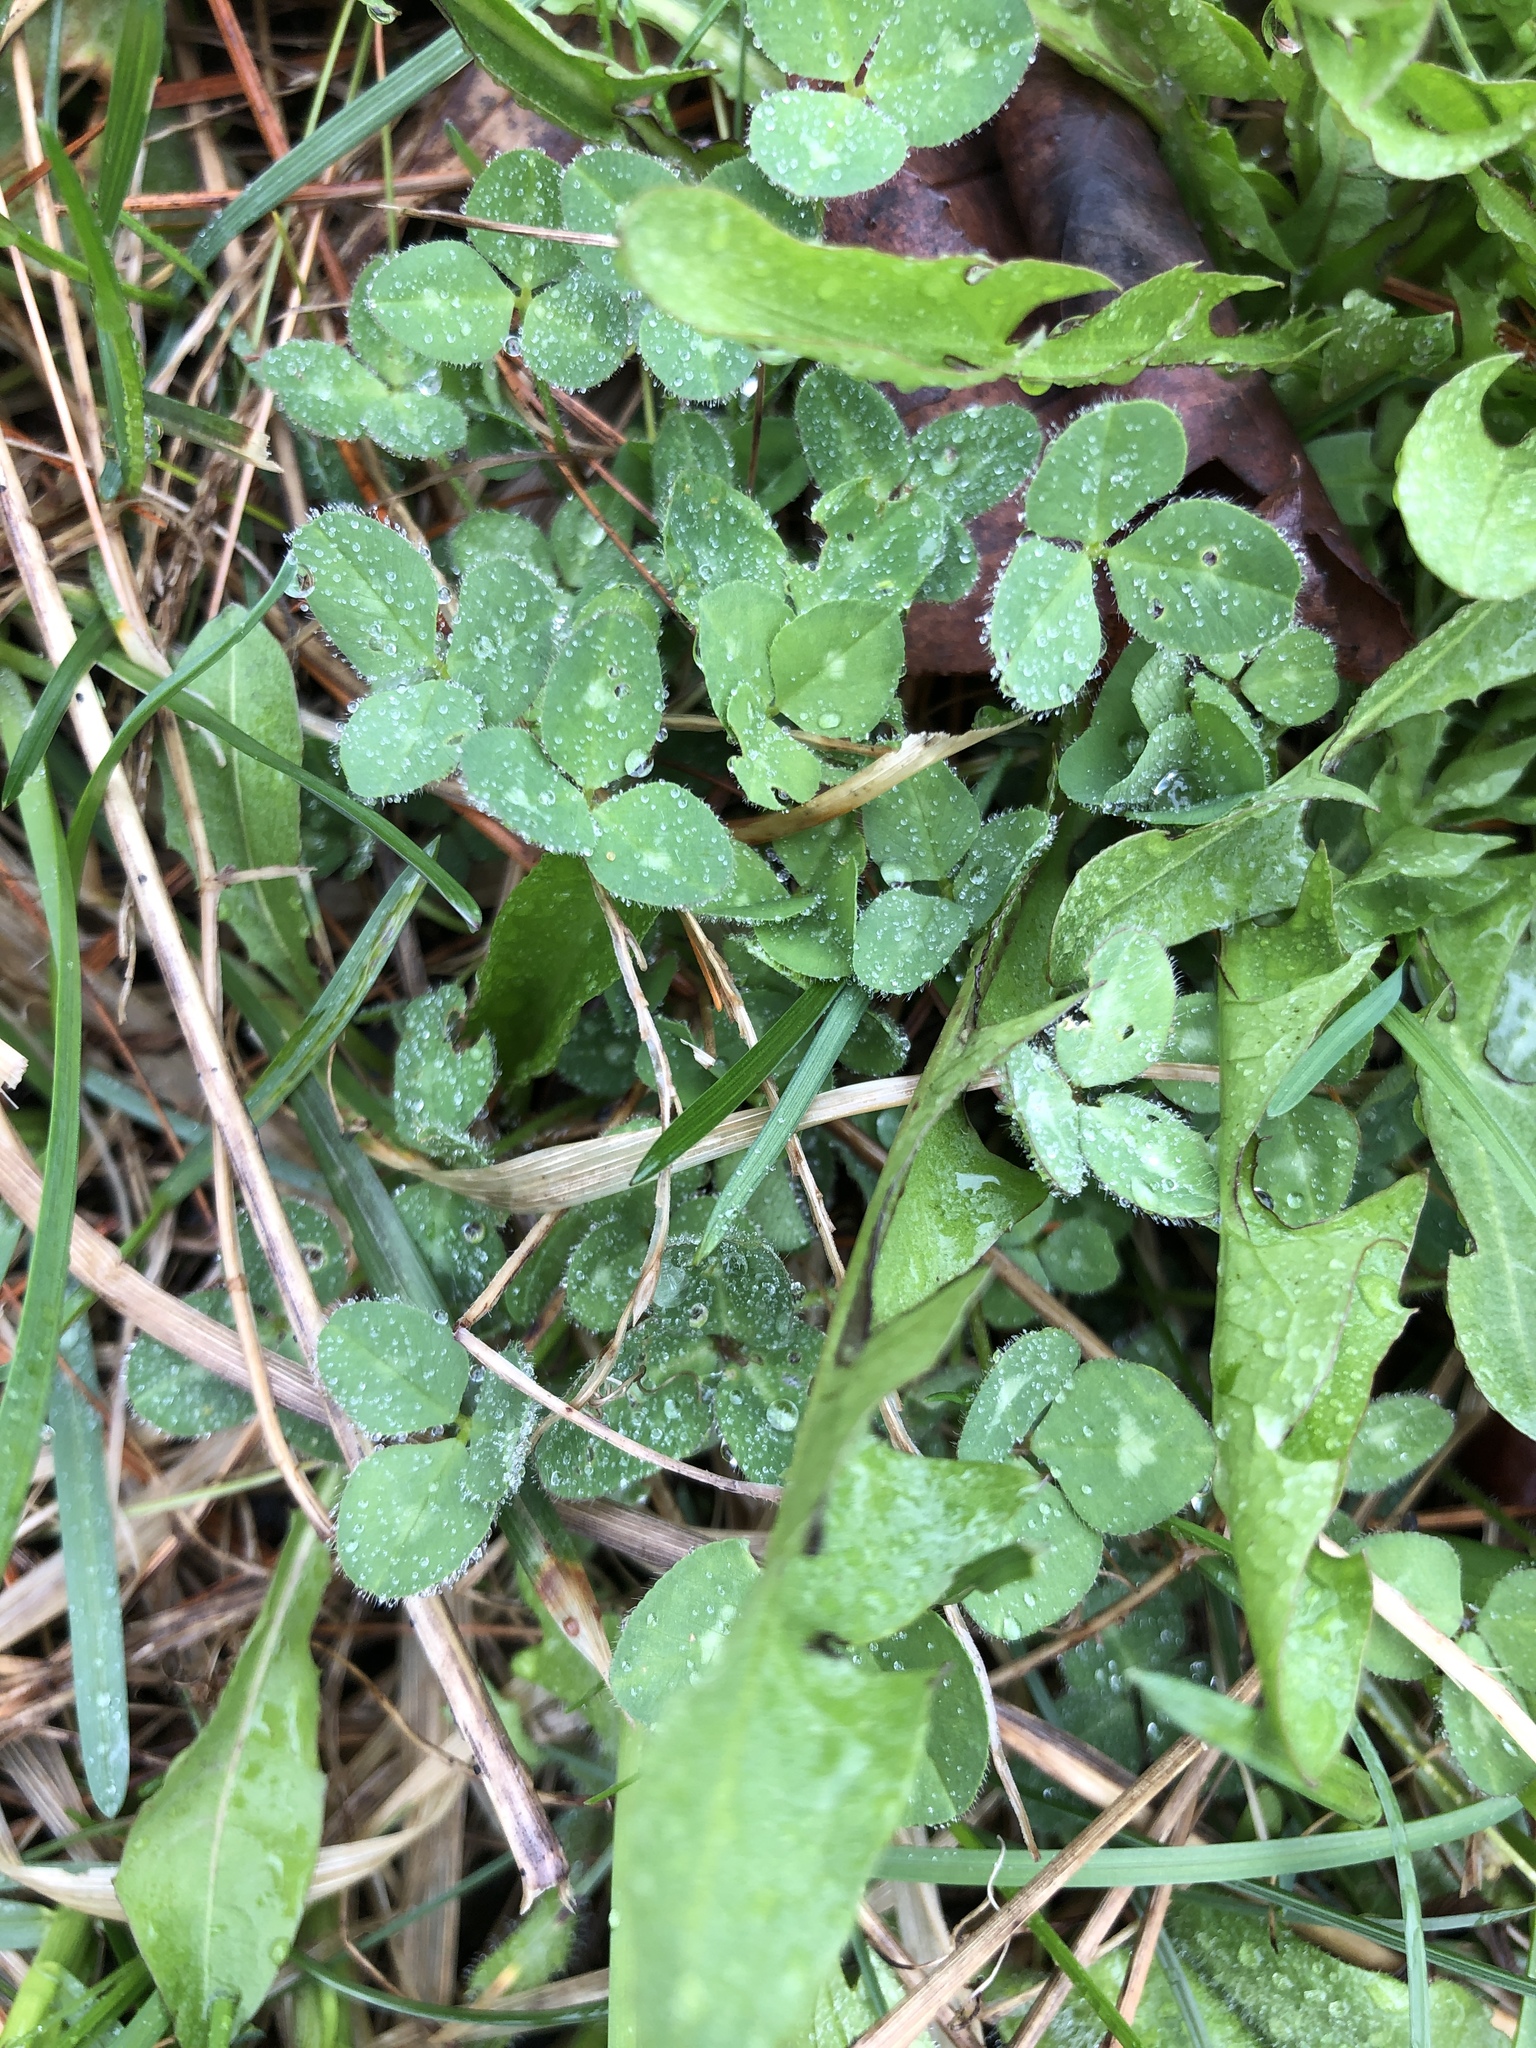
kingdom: Plantae
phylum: Tracheophyta
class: Magnoliopsida
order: Fabales
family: Fabaceae
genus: Trifolium
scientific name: Trifolium pratense
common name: Red clover
